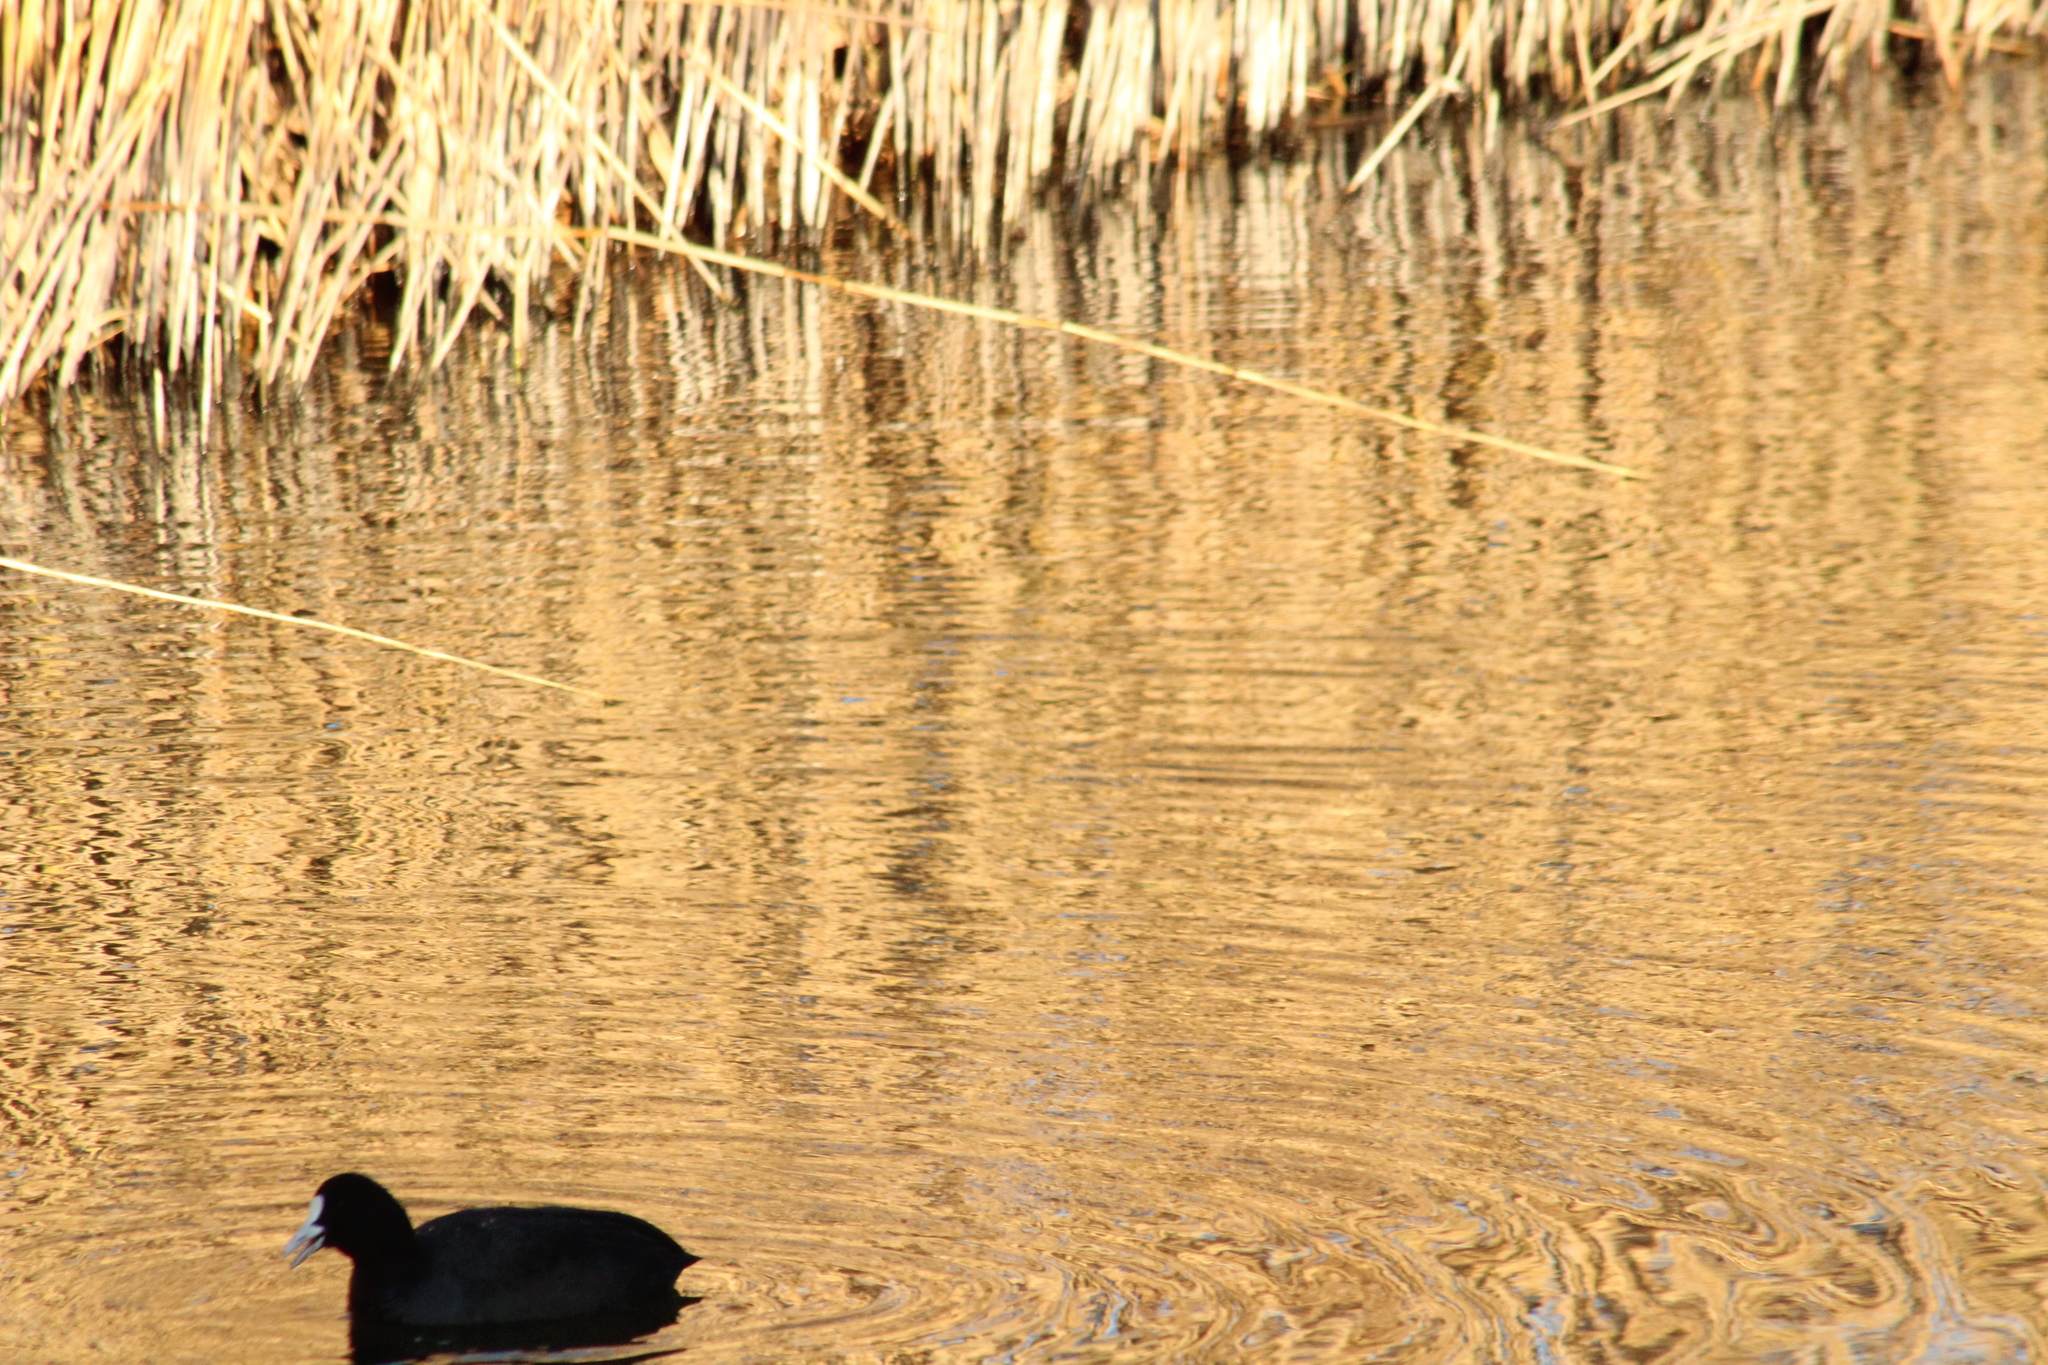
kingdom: Animalia
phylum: Chordata
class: Aves
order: Gruiformes
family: Rallidae
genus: Fulica
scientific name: Fulica atra
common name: Eurasian coot
